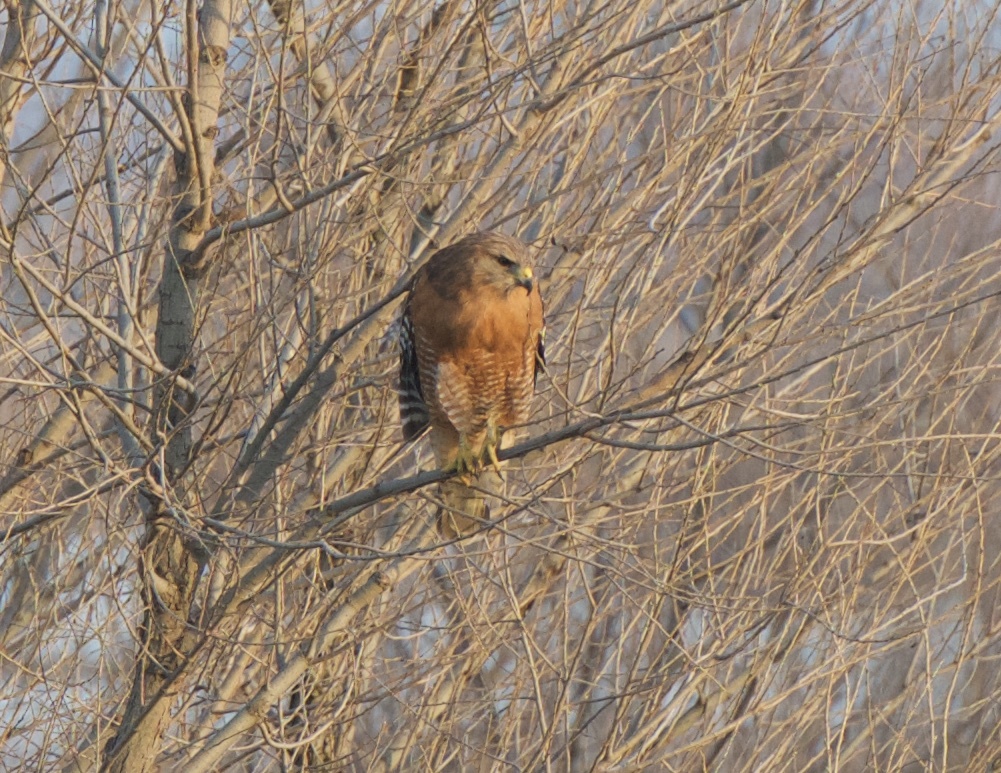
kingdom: Animalia
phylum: Chordata
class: Aves
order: Accipitriformes
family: Accipitridae
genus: Buteo
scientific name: Buteo lineatus
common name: Red-shouldered hawk
